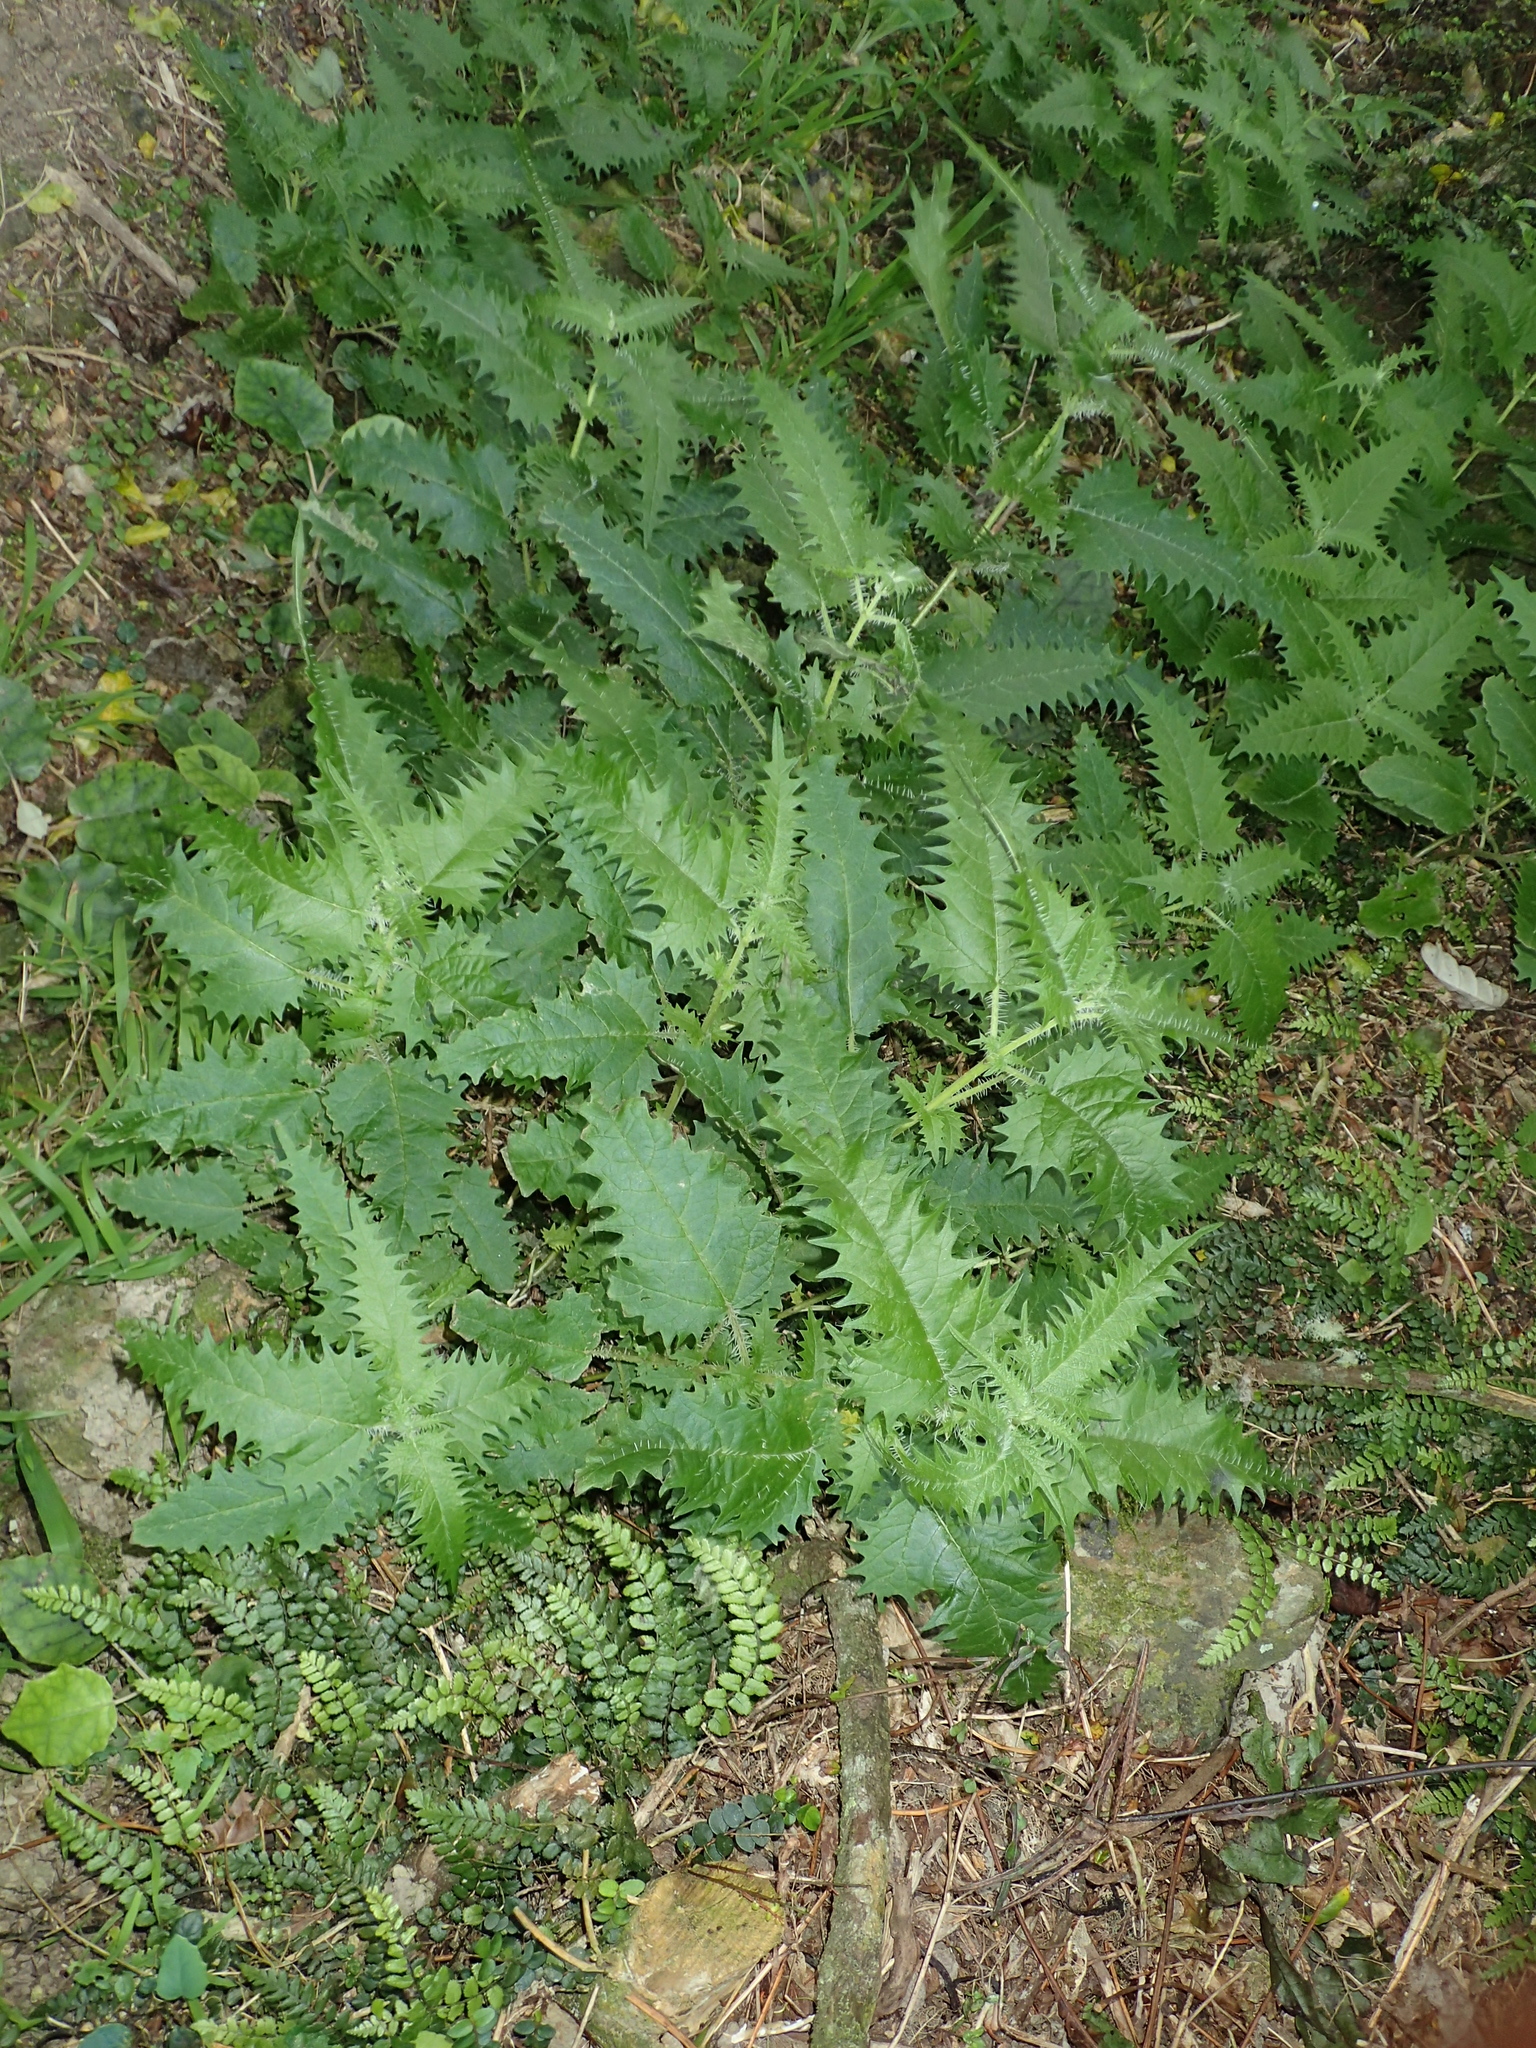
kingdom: Plantae
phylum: Tracheophyta
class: Magnoliopsida
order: Rosales
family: Urticaceae
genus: Urtica
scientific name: Urtica ferox
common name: Tree nettle
